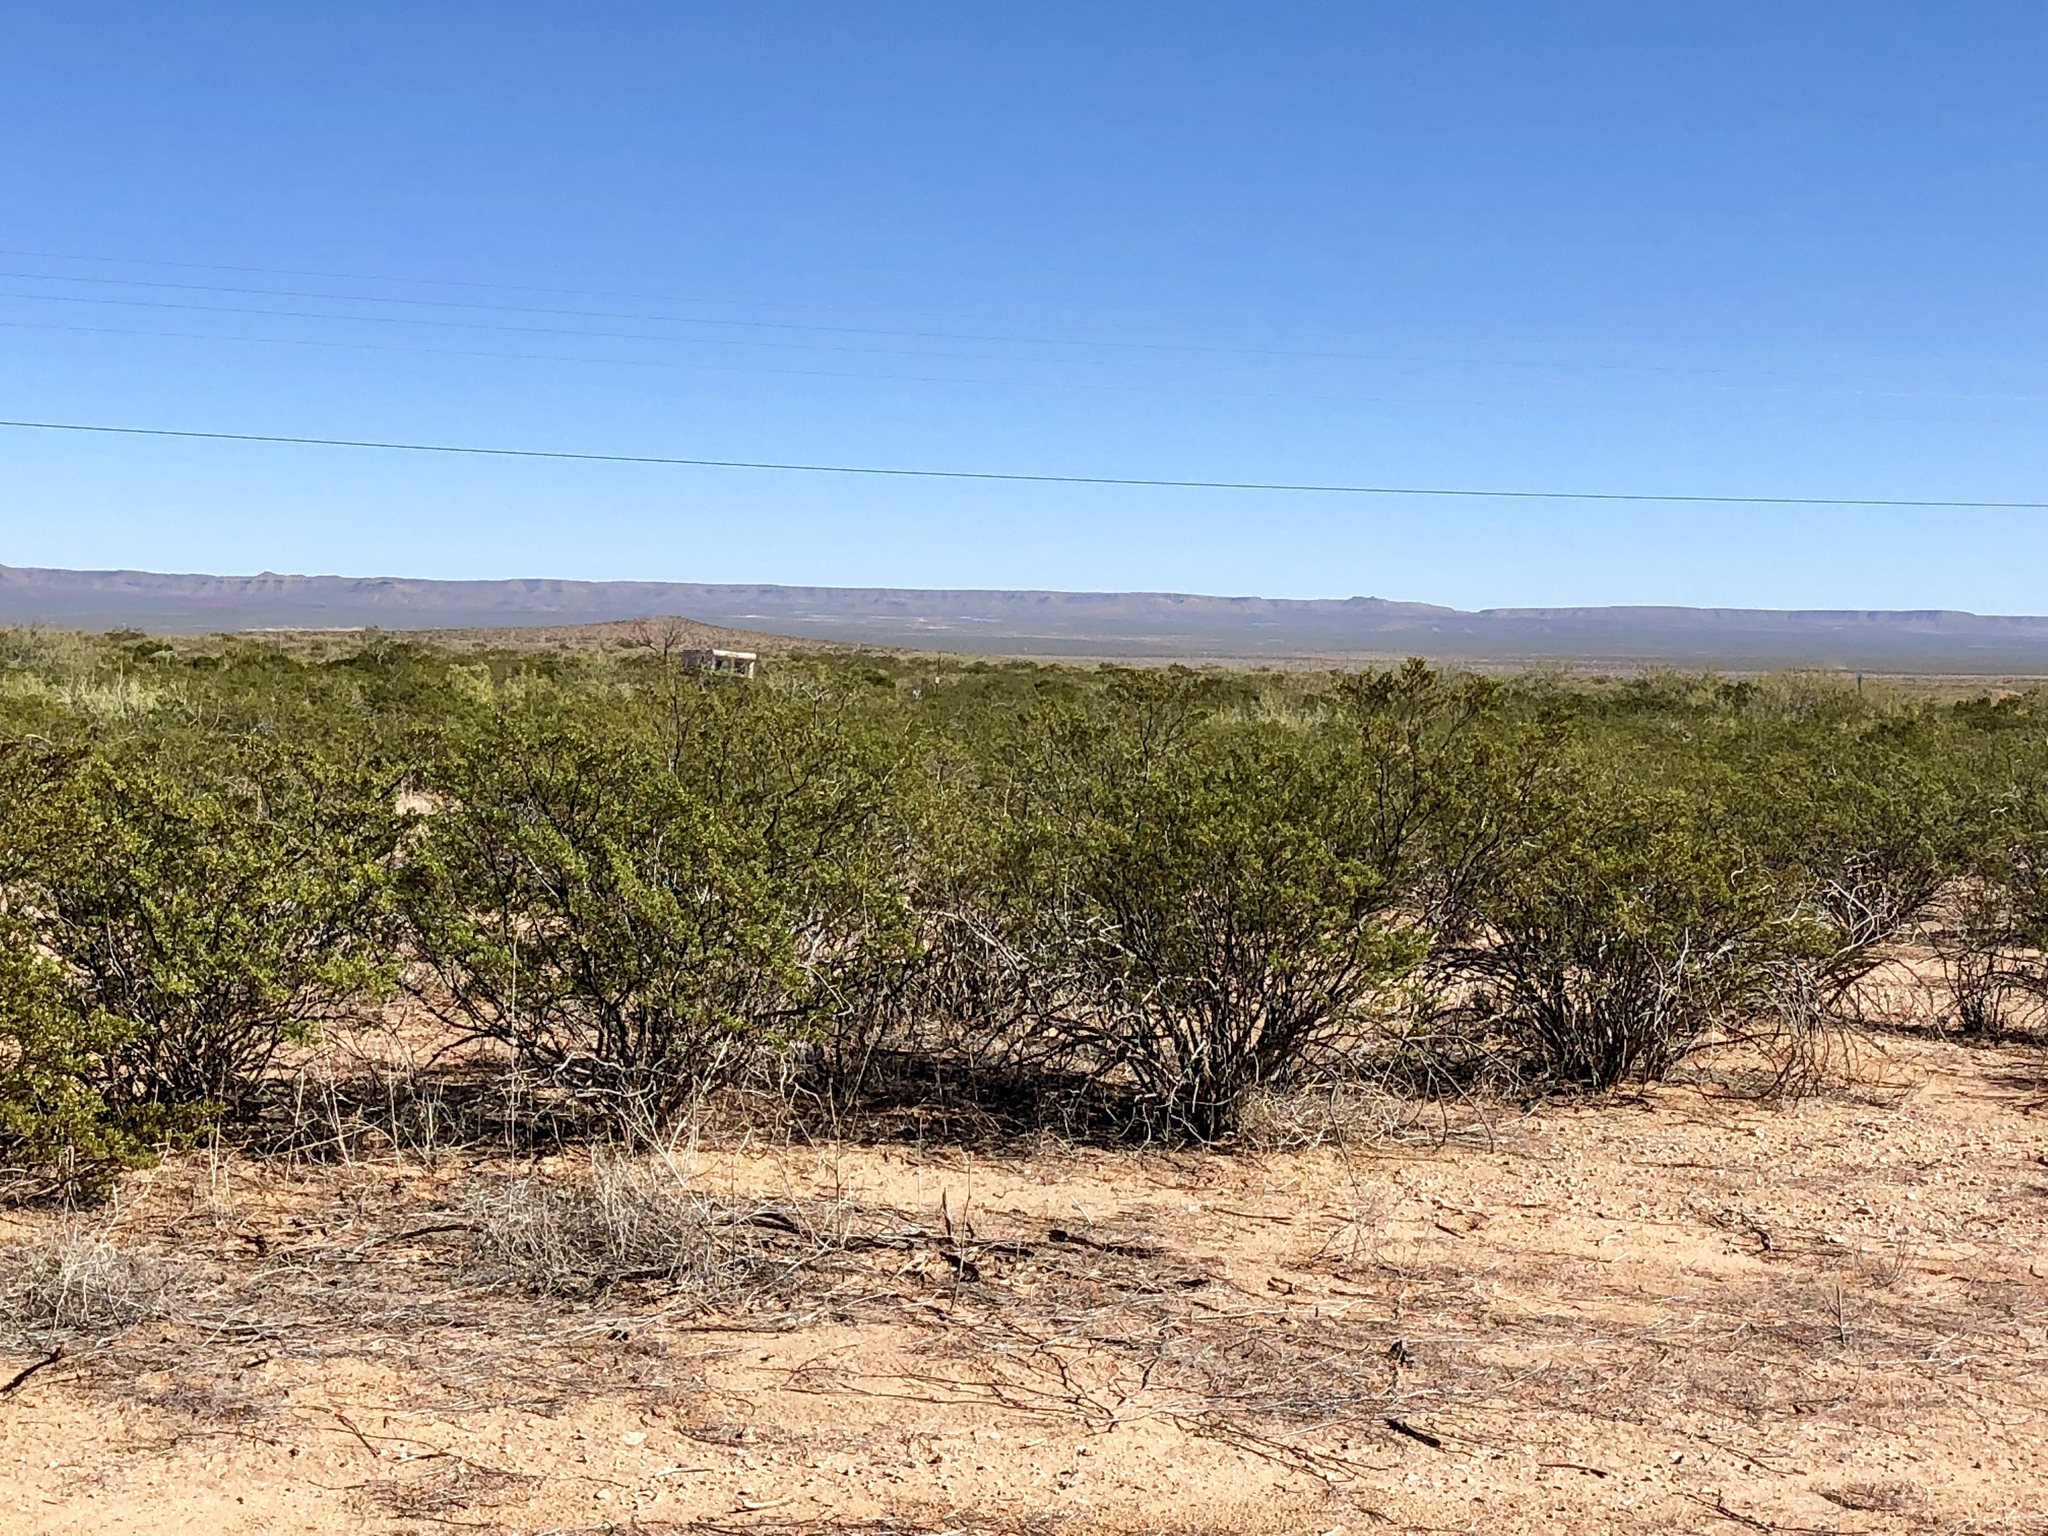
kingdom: Plantae
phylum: Tracheophyta
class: Magnoliopsida
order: Zygophyllales
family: Zygophyllaceae
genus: Larrea
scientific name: Larrea tridentata
